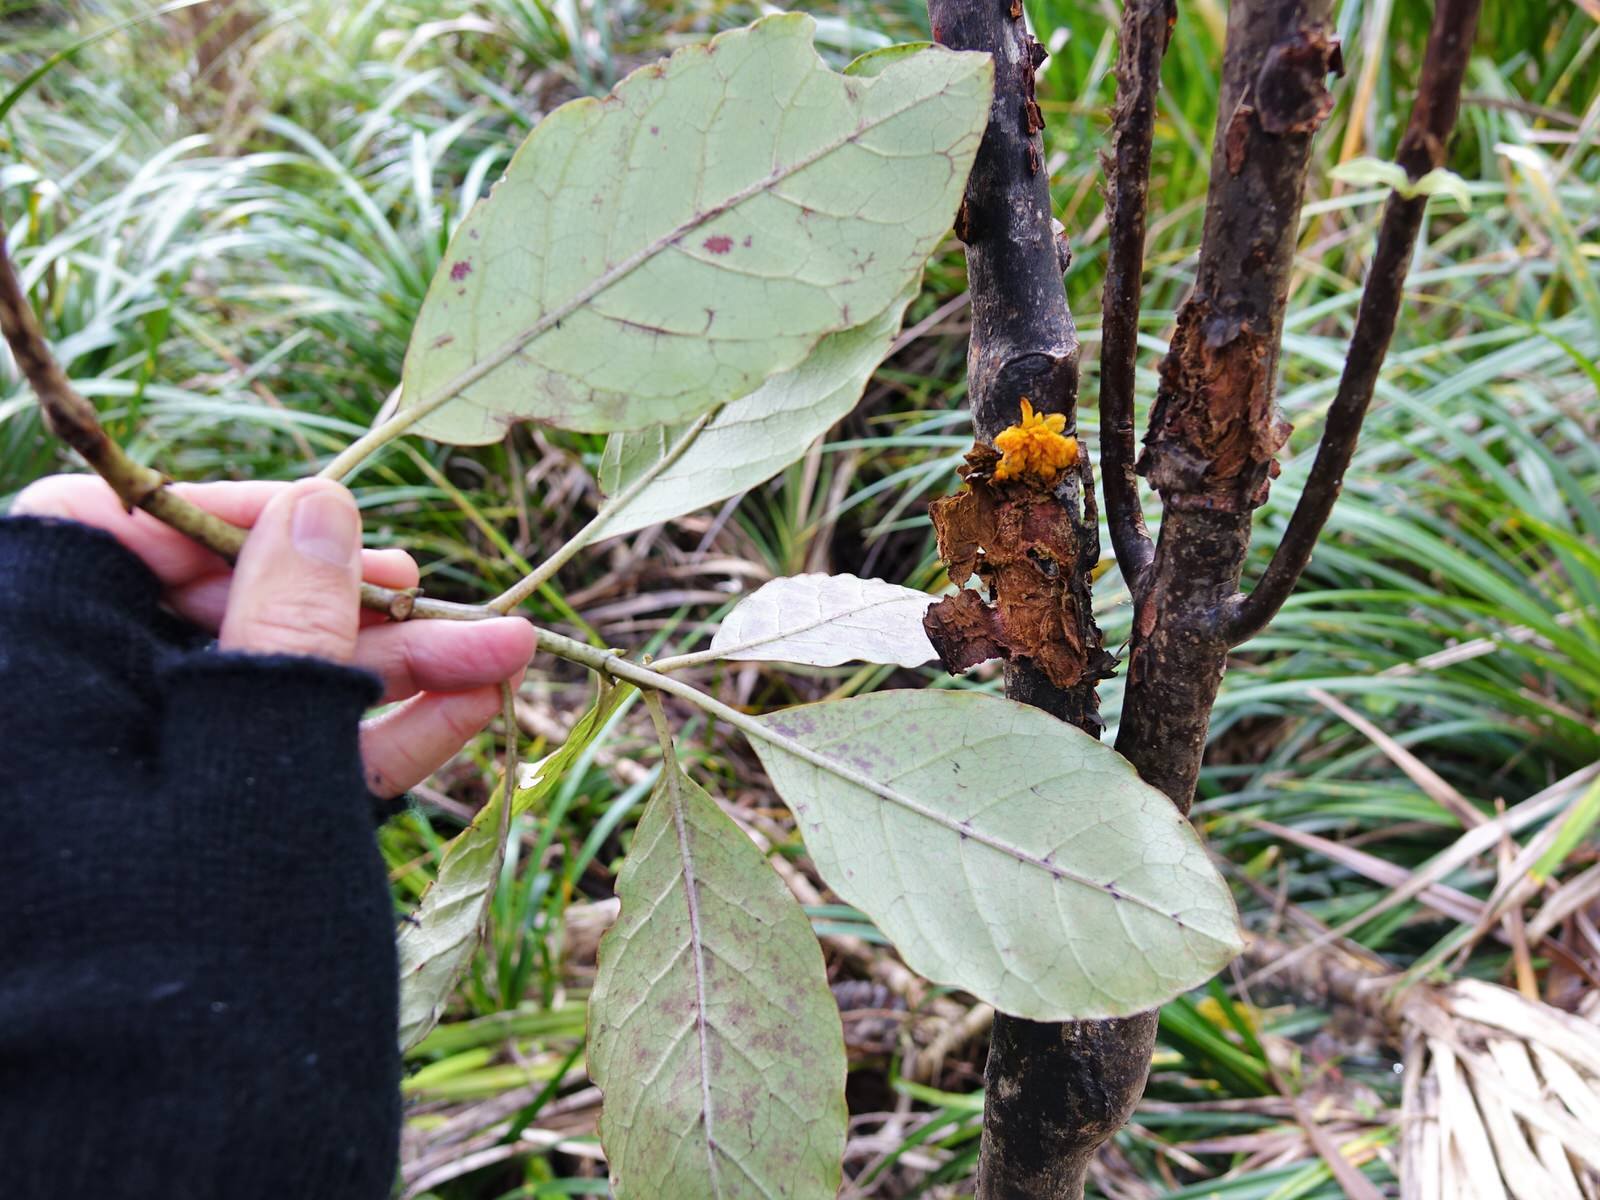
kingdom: Plantae
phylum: Tracheophyta
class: Magnoliopsida
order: Gentianales
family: Rubiaceae
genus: Coprosma
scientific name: Coprosma autumnalis
